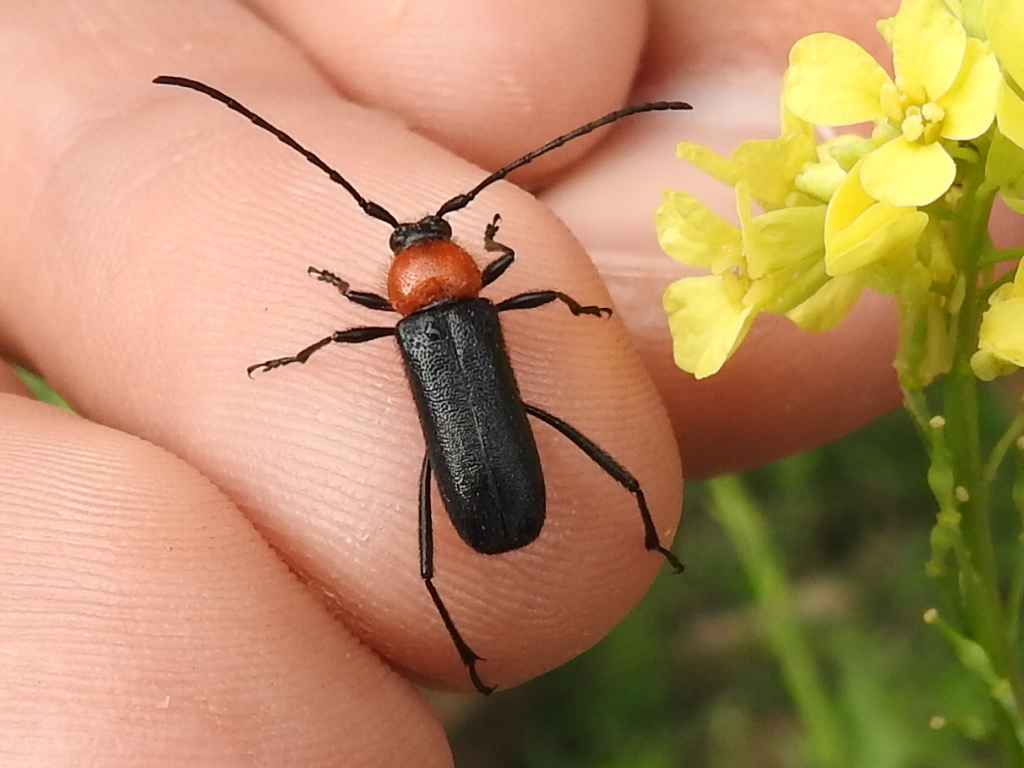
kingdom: Animalia
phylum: Arthropoda
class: Insecta
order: Coleoptera
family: Cerambycidae
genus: Batyle
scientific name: Batyle ignicollis
